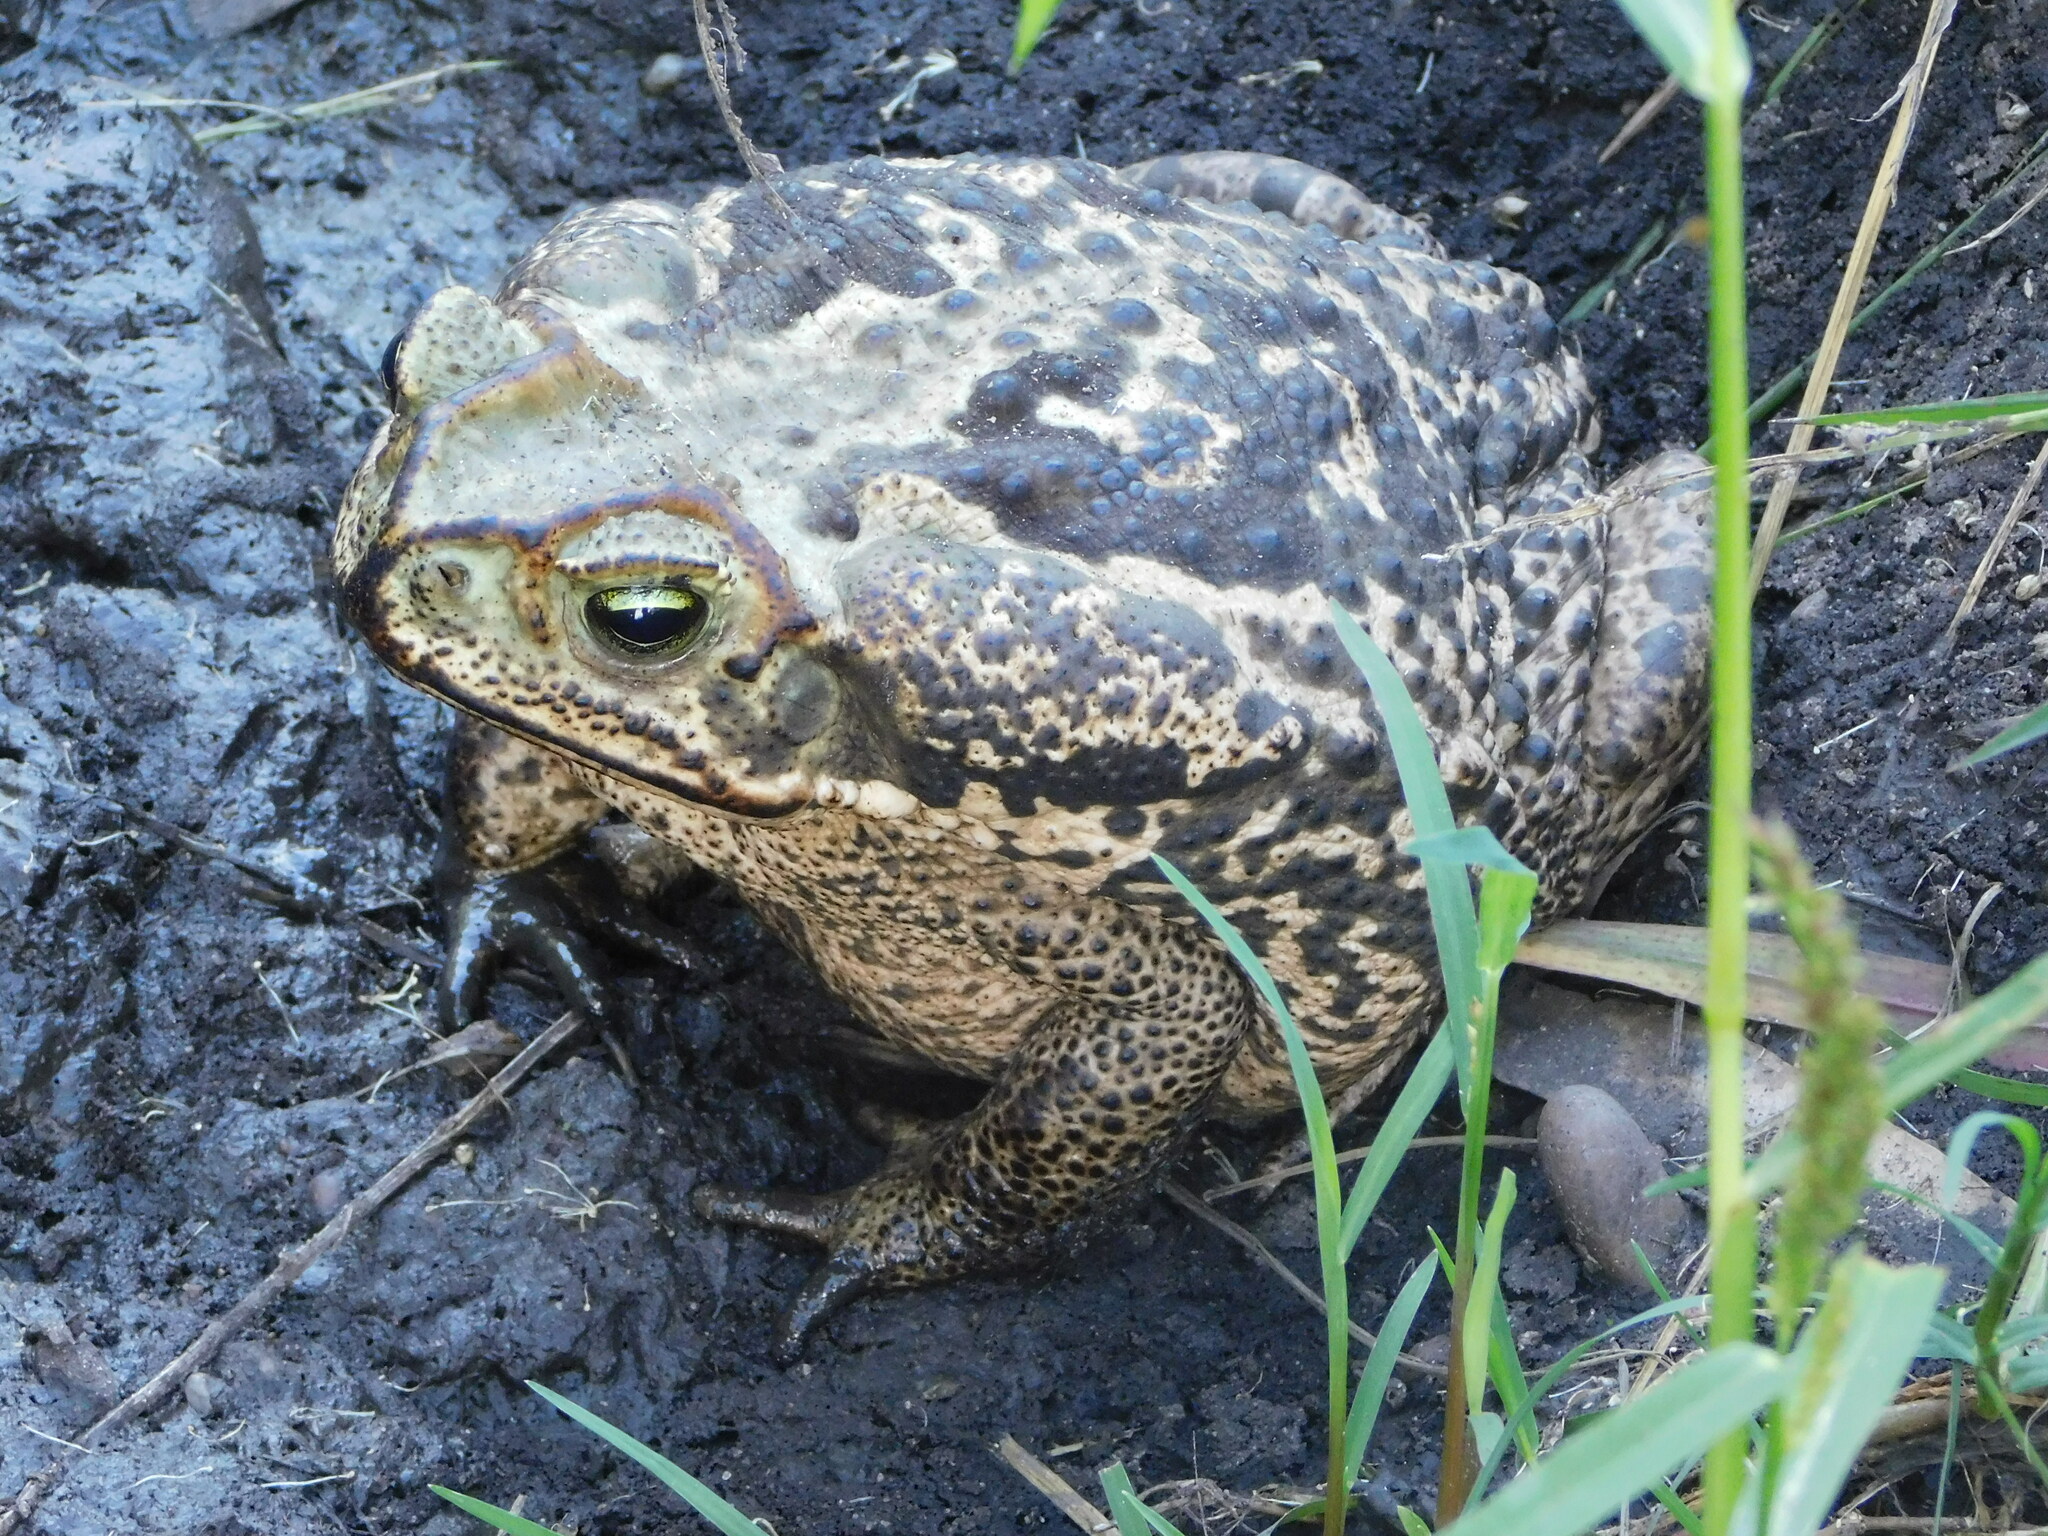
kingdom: Animalia
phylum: Chordata
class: Amphibia
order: Anura
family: Bufonidae
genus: Rhinella
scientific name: Rhinella diptycha
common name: Cope's toad
